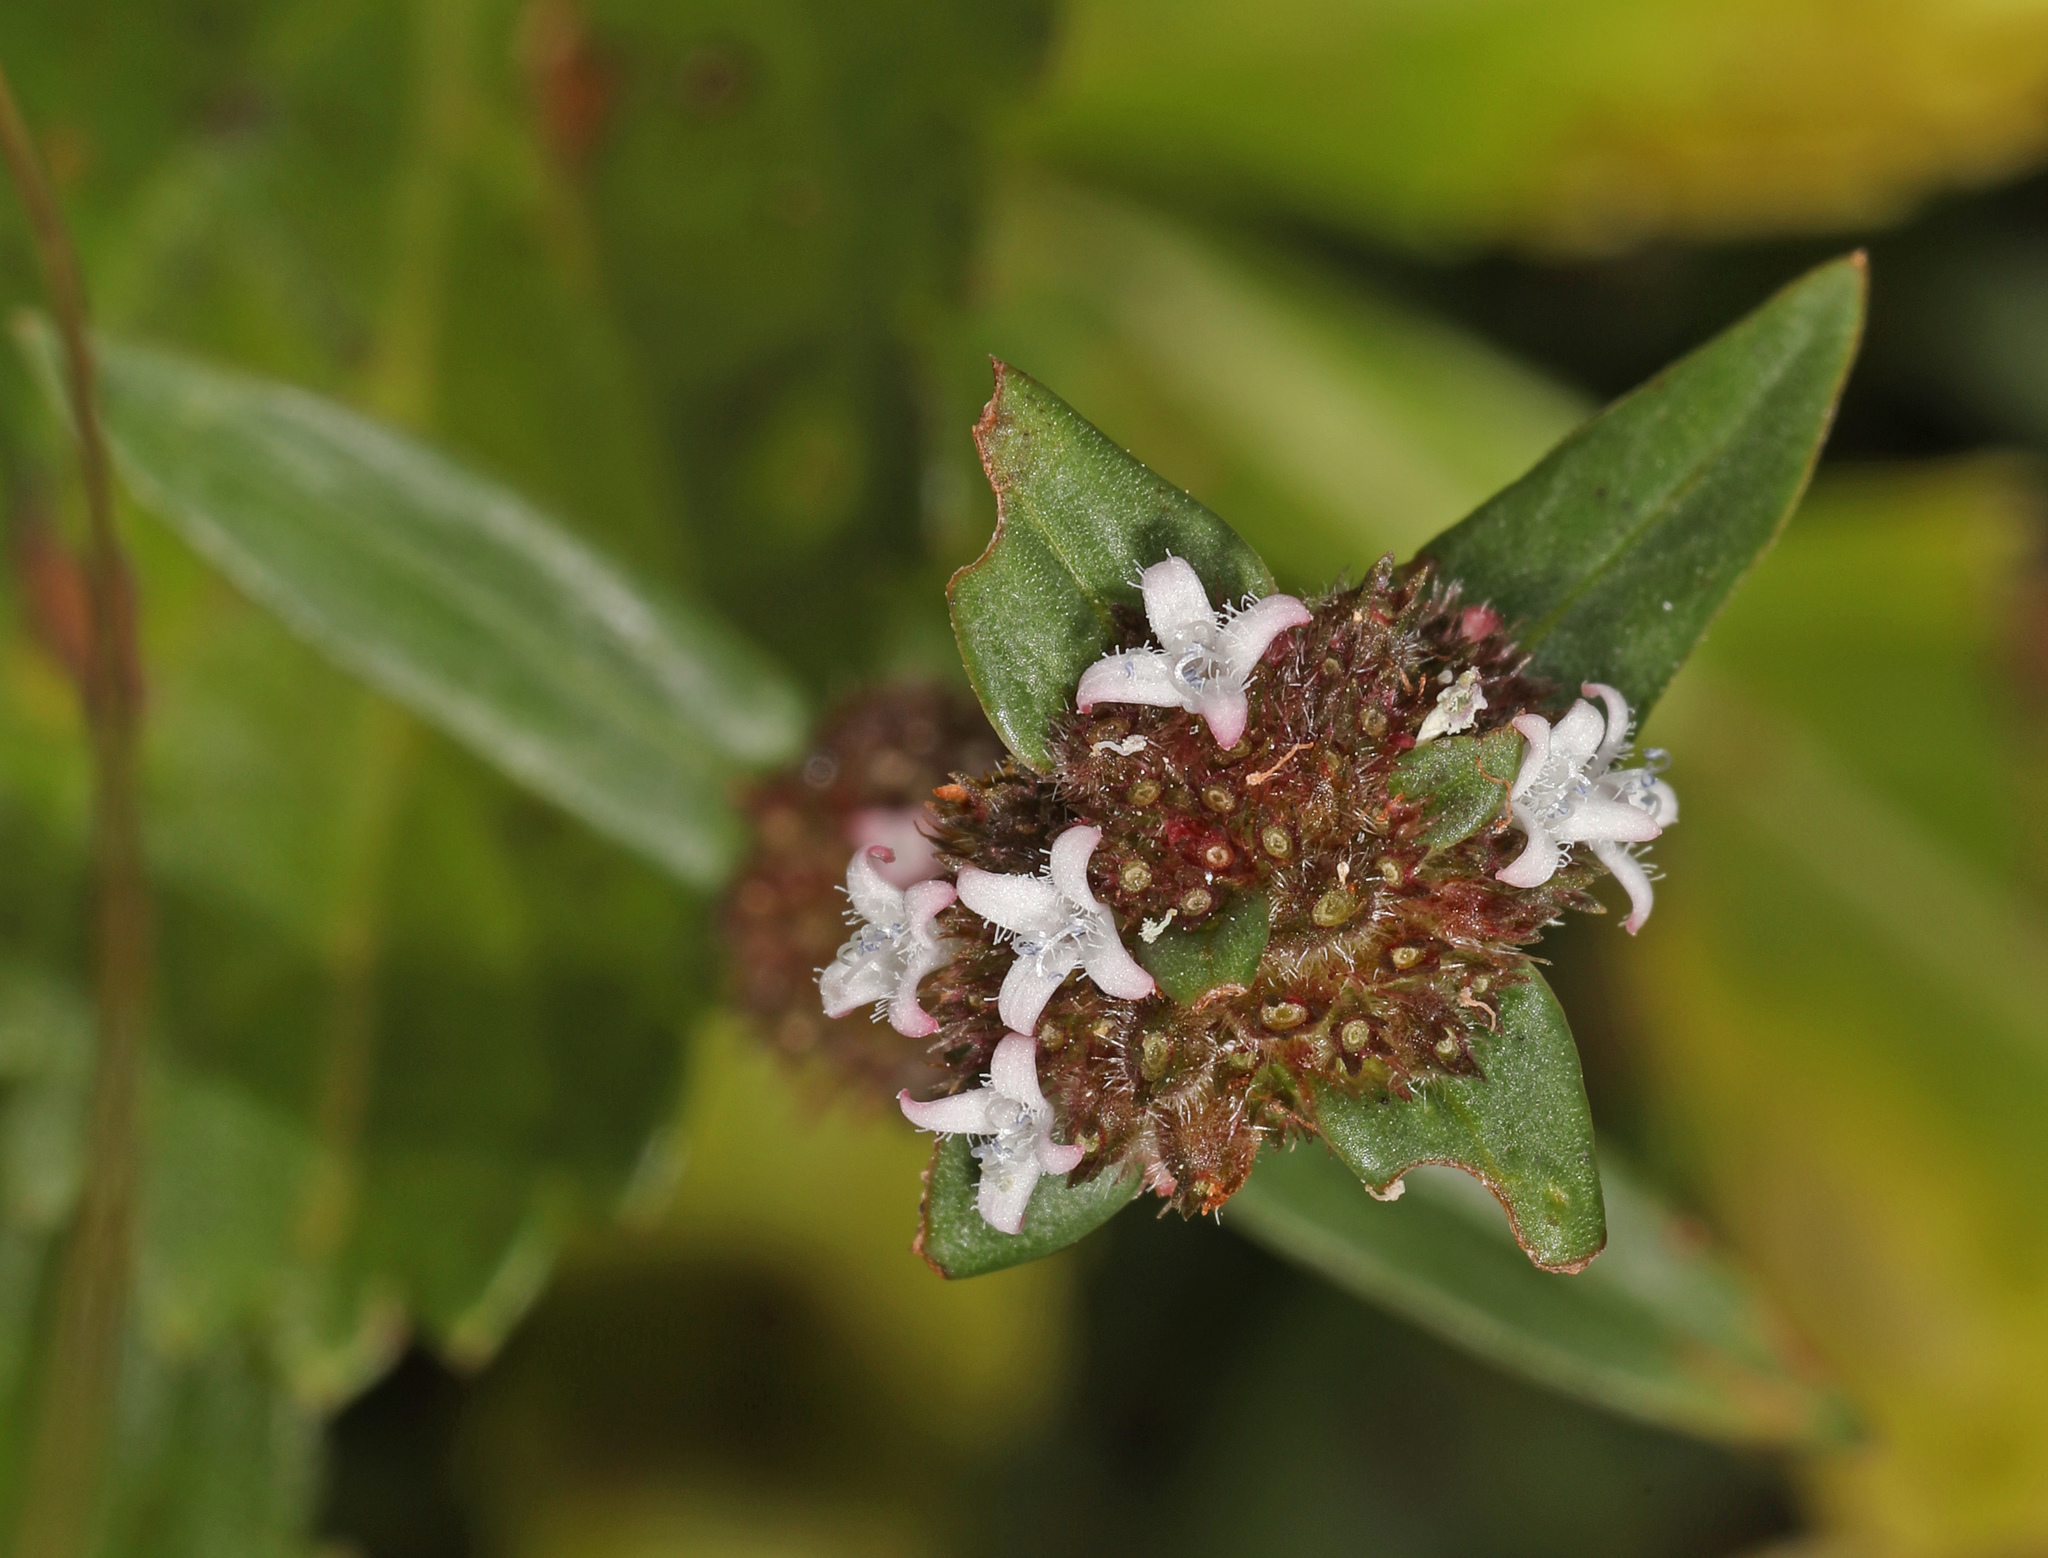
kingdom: Plantae
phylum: Tracheophyta
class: Magnoliopsida
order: Gentianales
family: Rubiaceae
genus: Spermacoce
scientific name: Spermacoce remota
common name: Woodland false buttonweed
